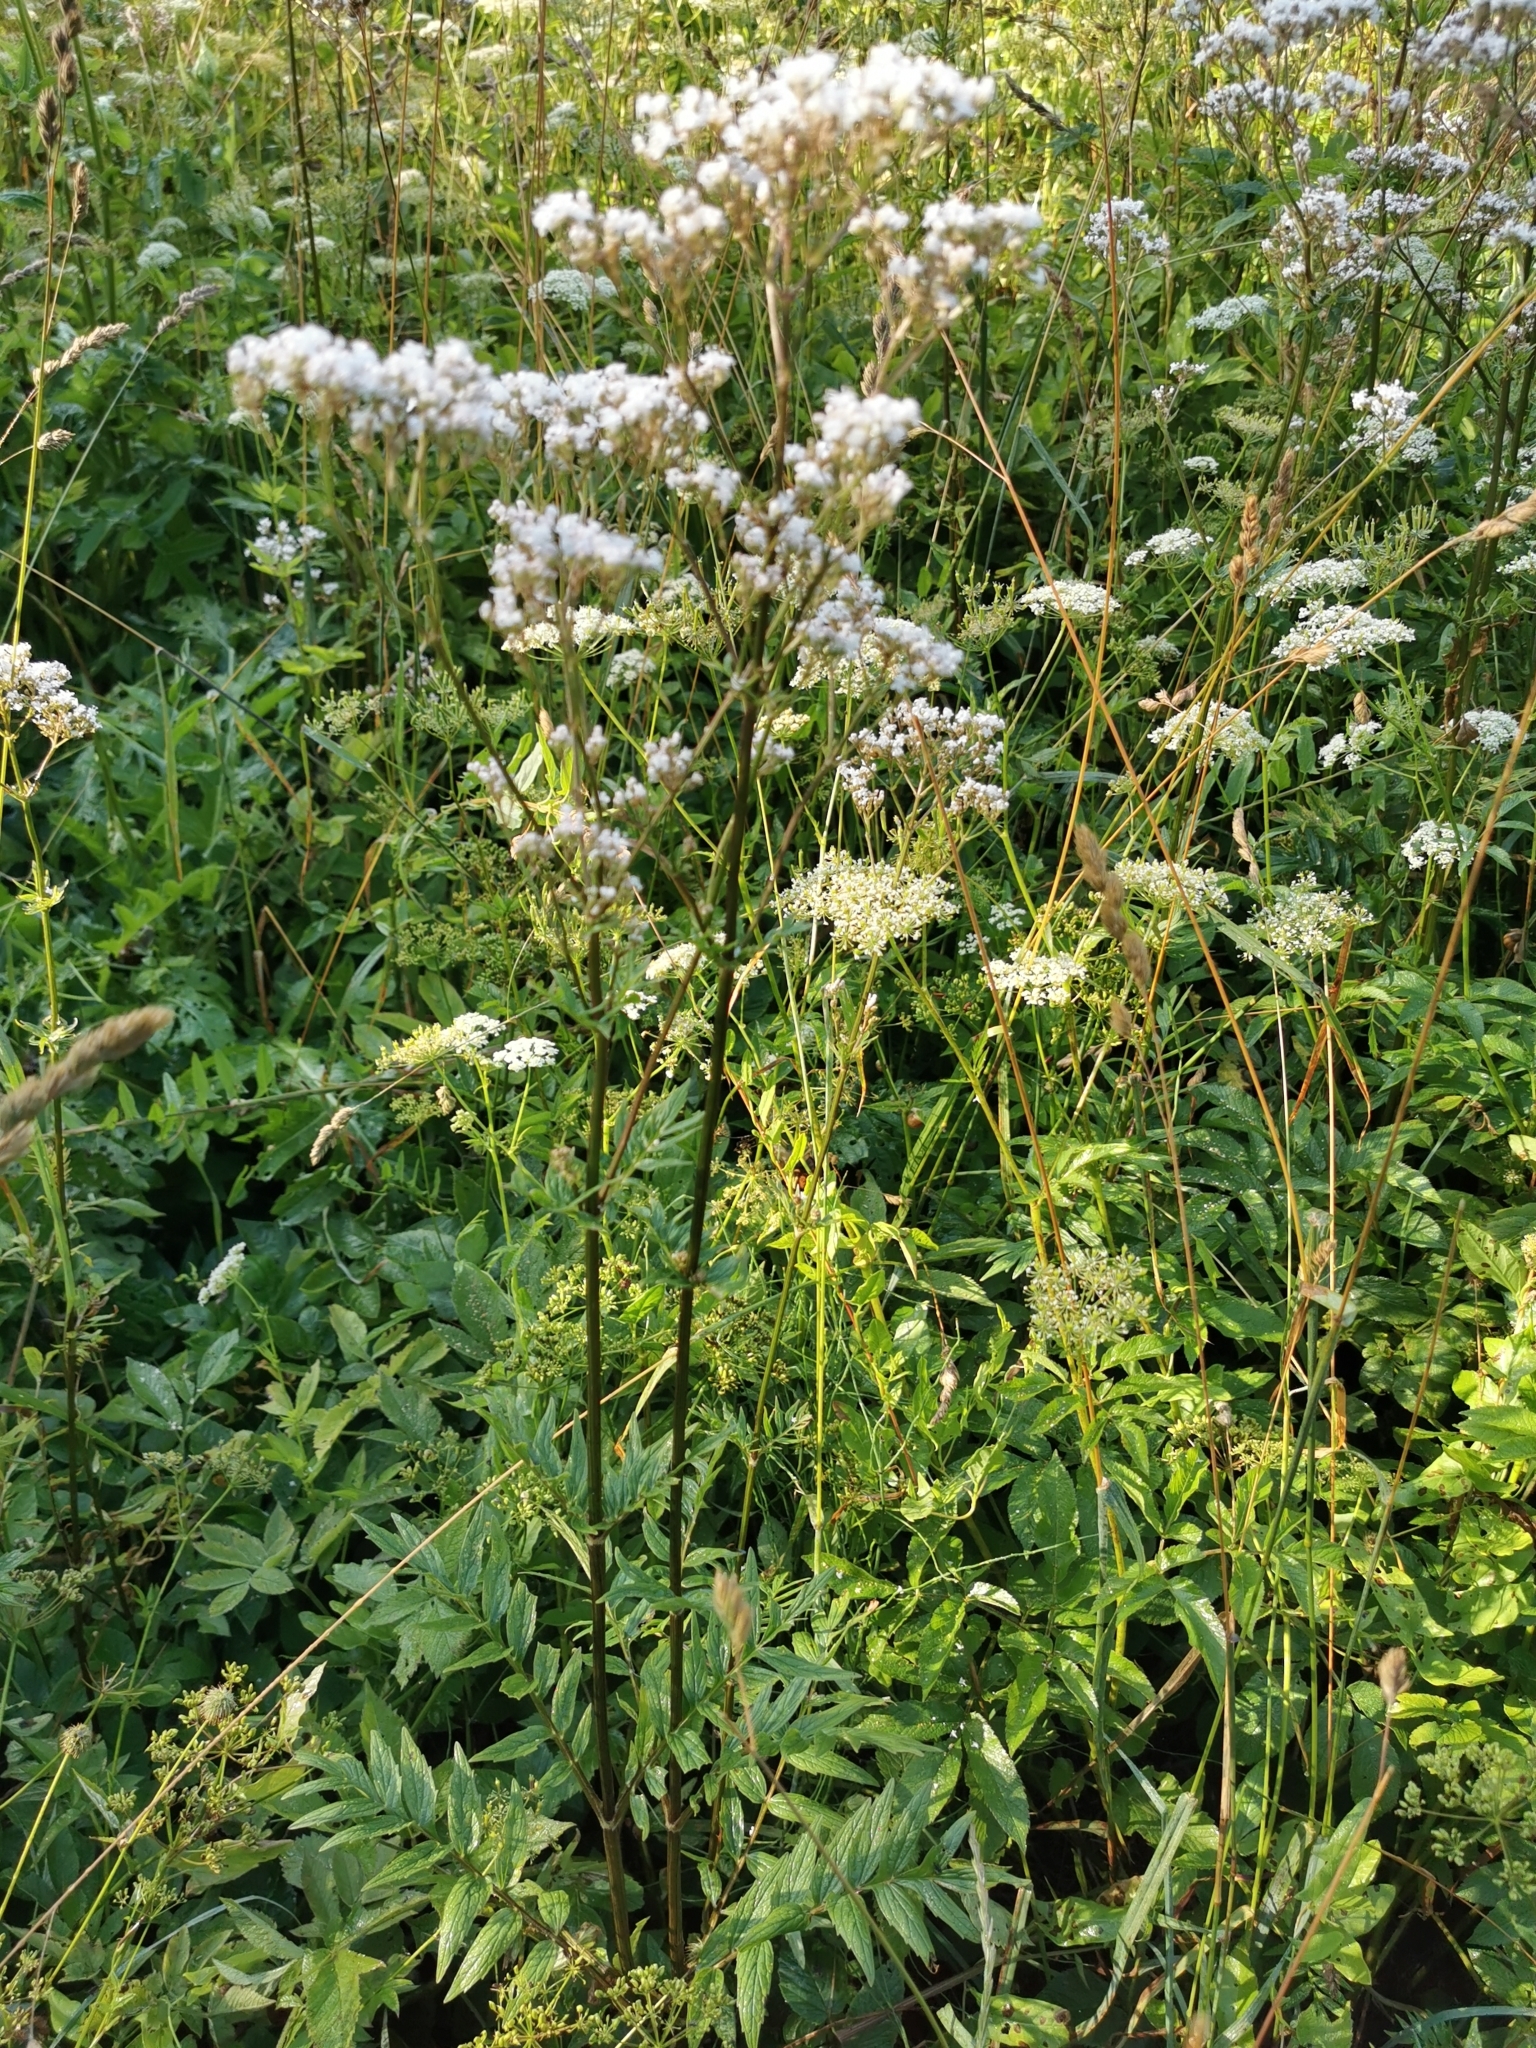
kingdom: Plantae
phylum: Tracheophyta
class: Magnoliopsida
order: Dipsacales
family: Caprifoliaceae
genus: Valeriana
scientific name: Valeriana officinalis
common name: Common valerian
